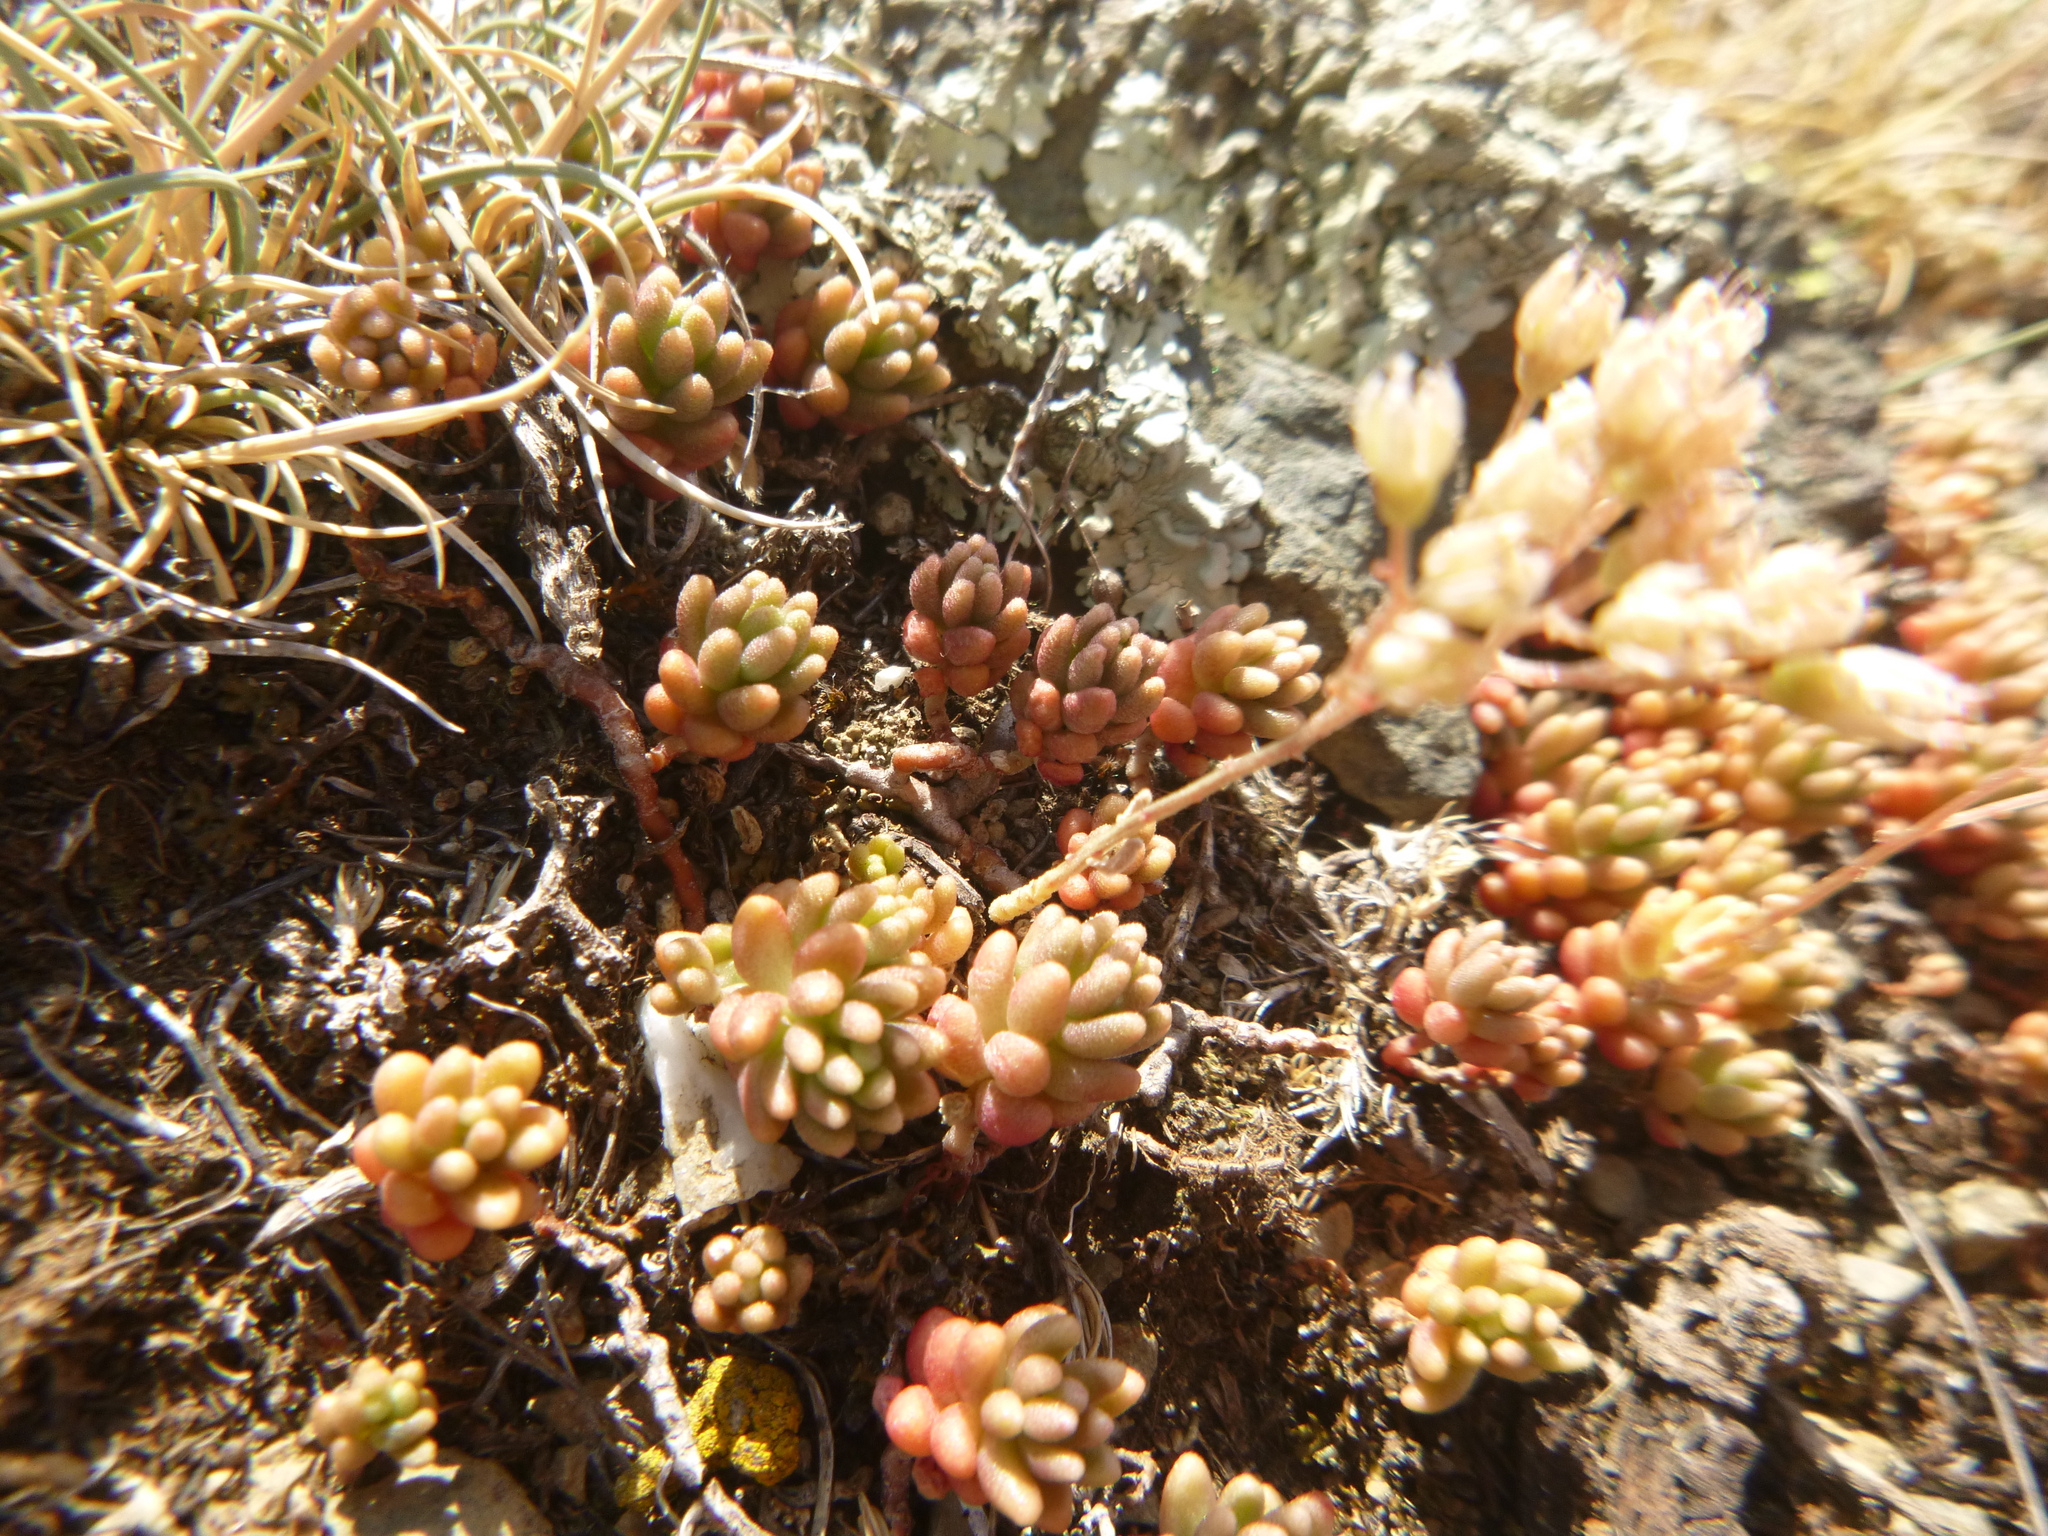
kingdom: Plantae
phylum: Tracheophyta
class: Magnoliopsida
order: Saxifragales
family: Crassulaceae
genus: Sedum
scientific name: Sedum album
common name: White stonecrop
